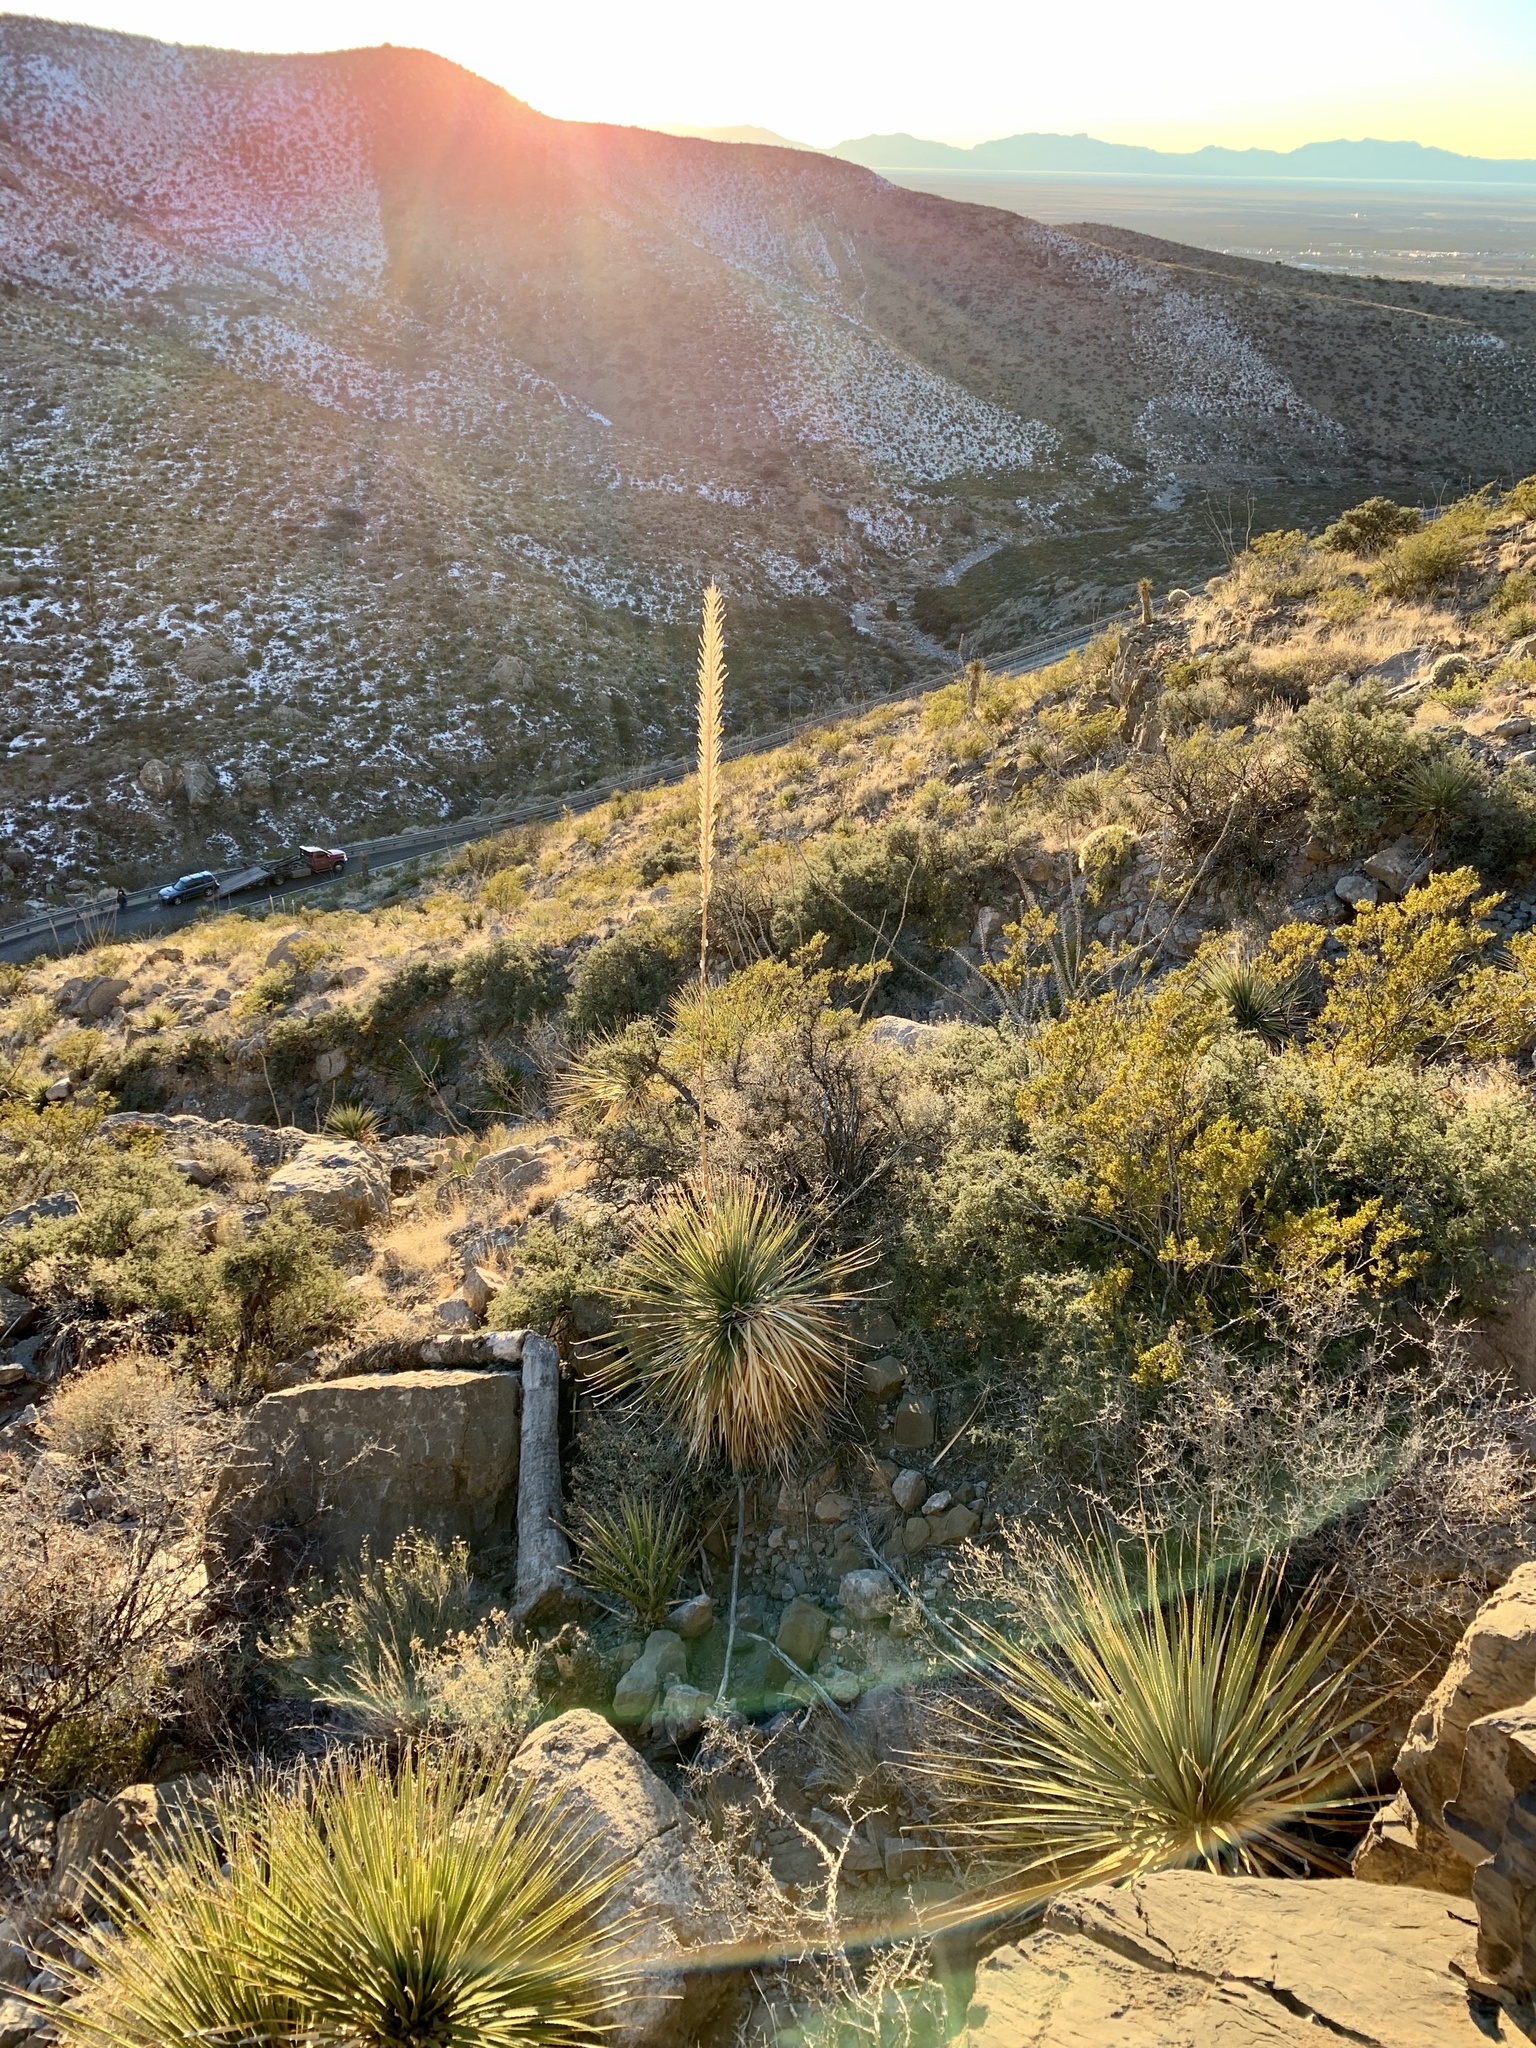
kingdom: Plantae
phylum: Tracheophyta
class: Liliopsida
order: Asparagales
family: Asparagaceae
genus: Dasylirion
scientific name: Dasylirion wheeleri
